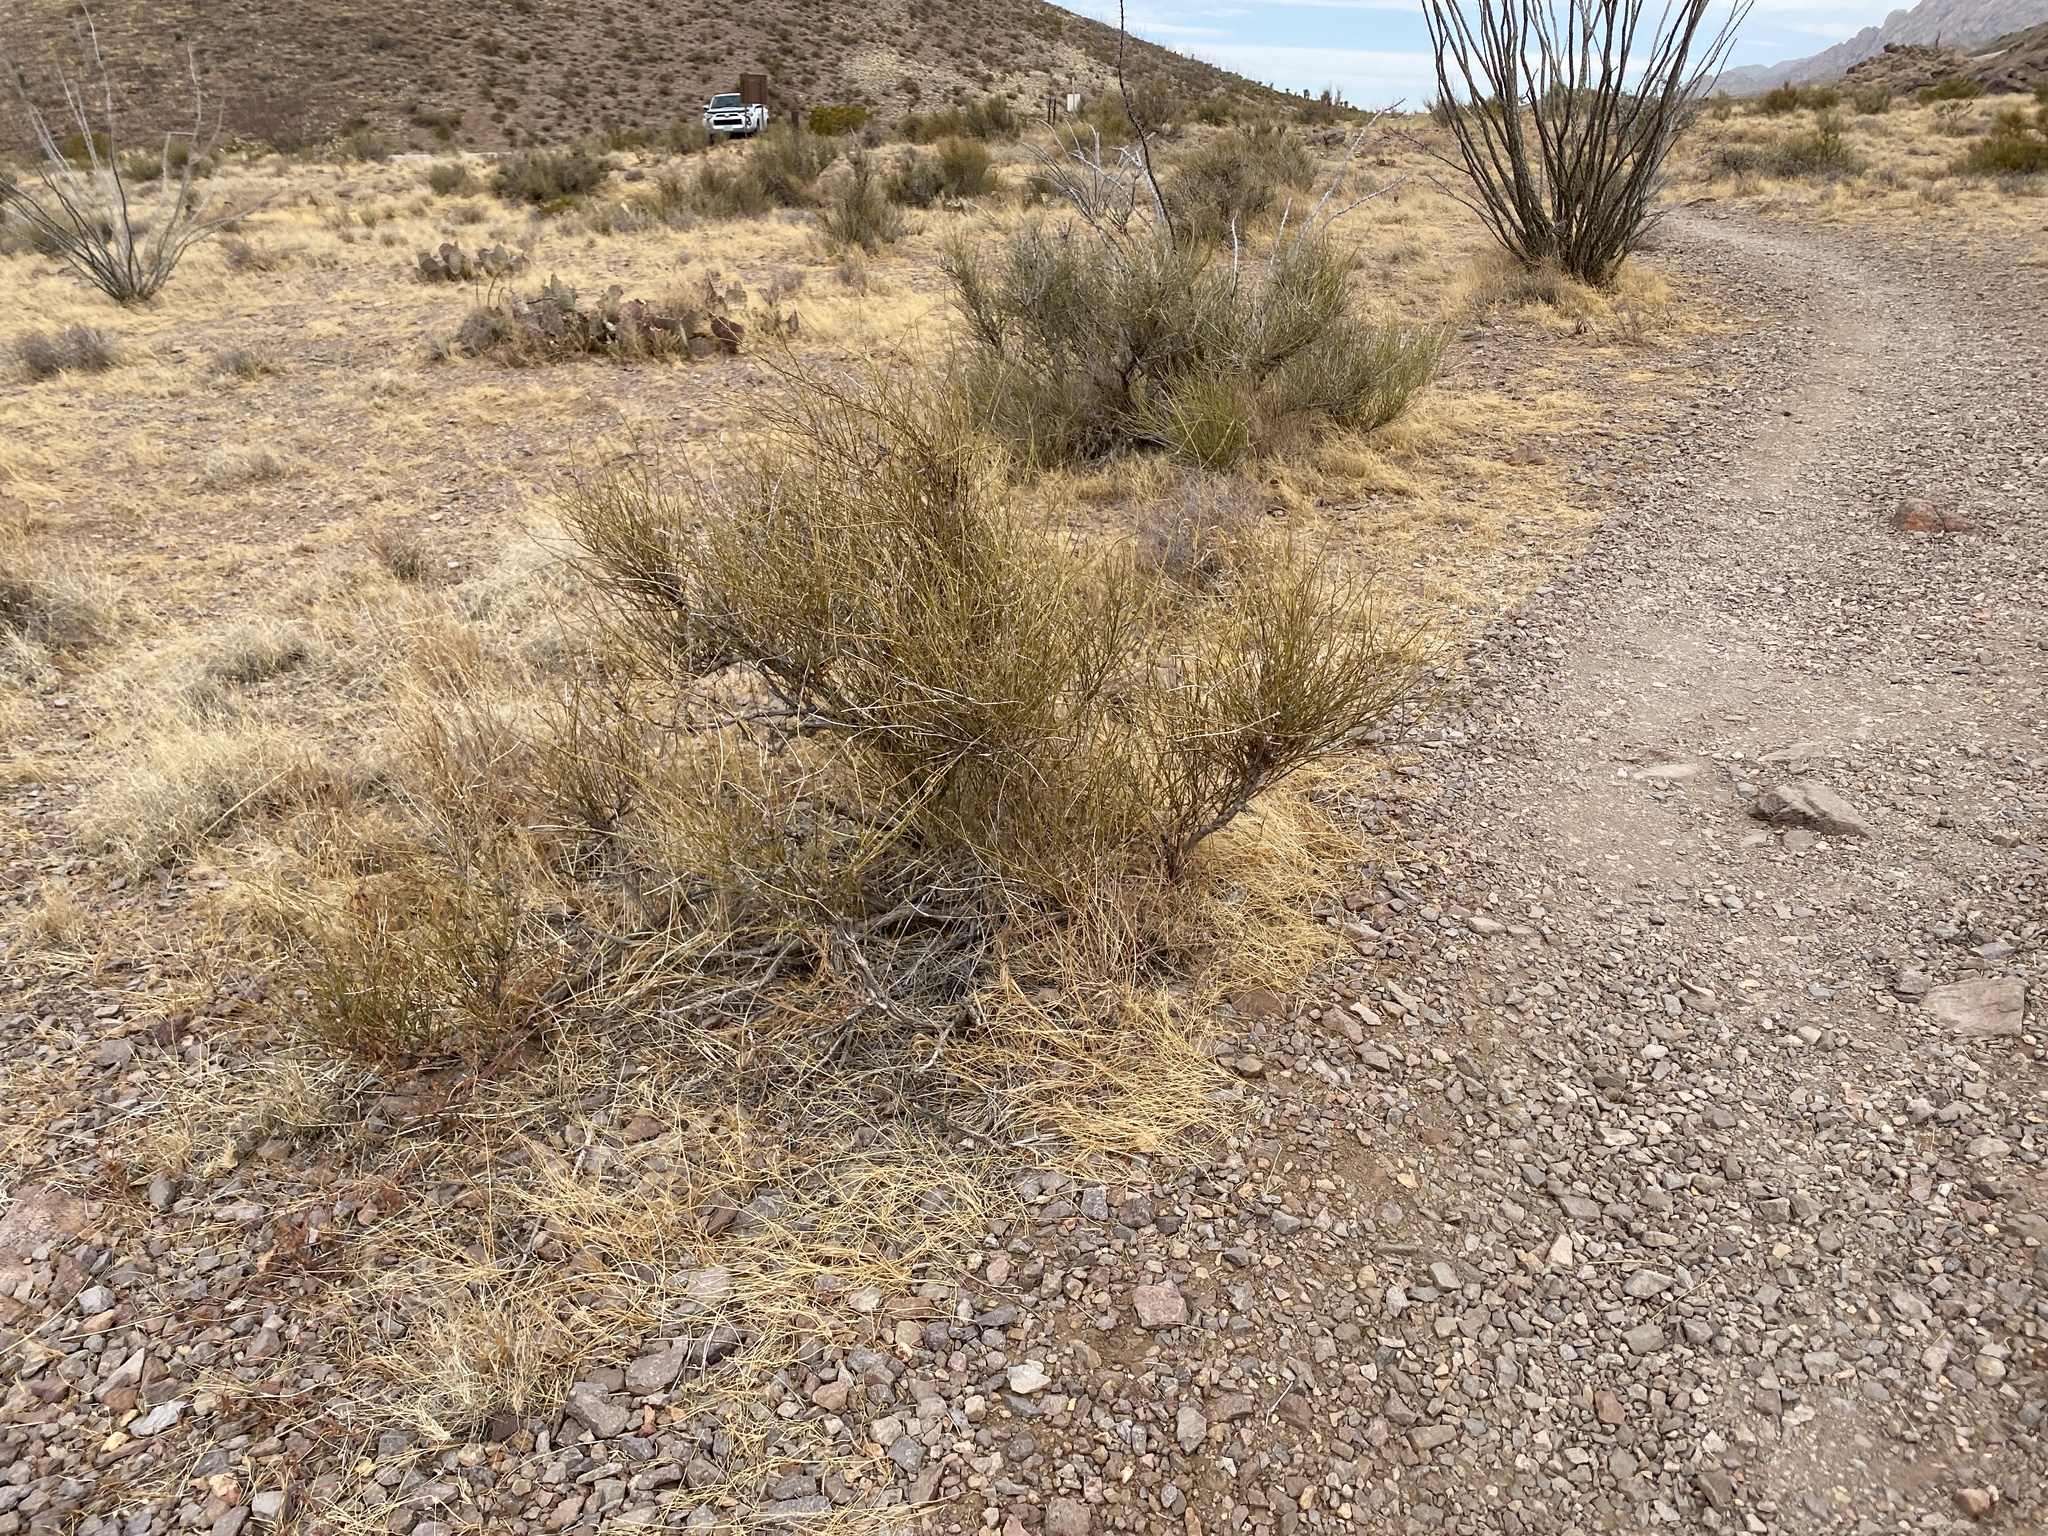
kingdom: Plantae
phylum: Tracheophyta
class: Gnetopsida
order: Ephedrales
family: Ephedraceae
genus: Ephedra
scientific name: Ephedra trifurca
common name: Mexican-tea
